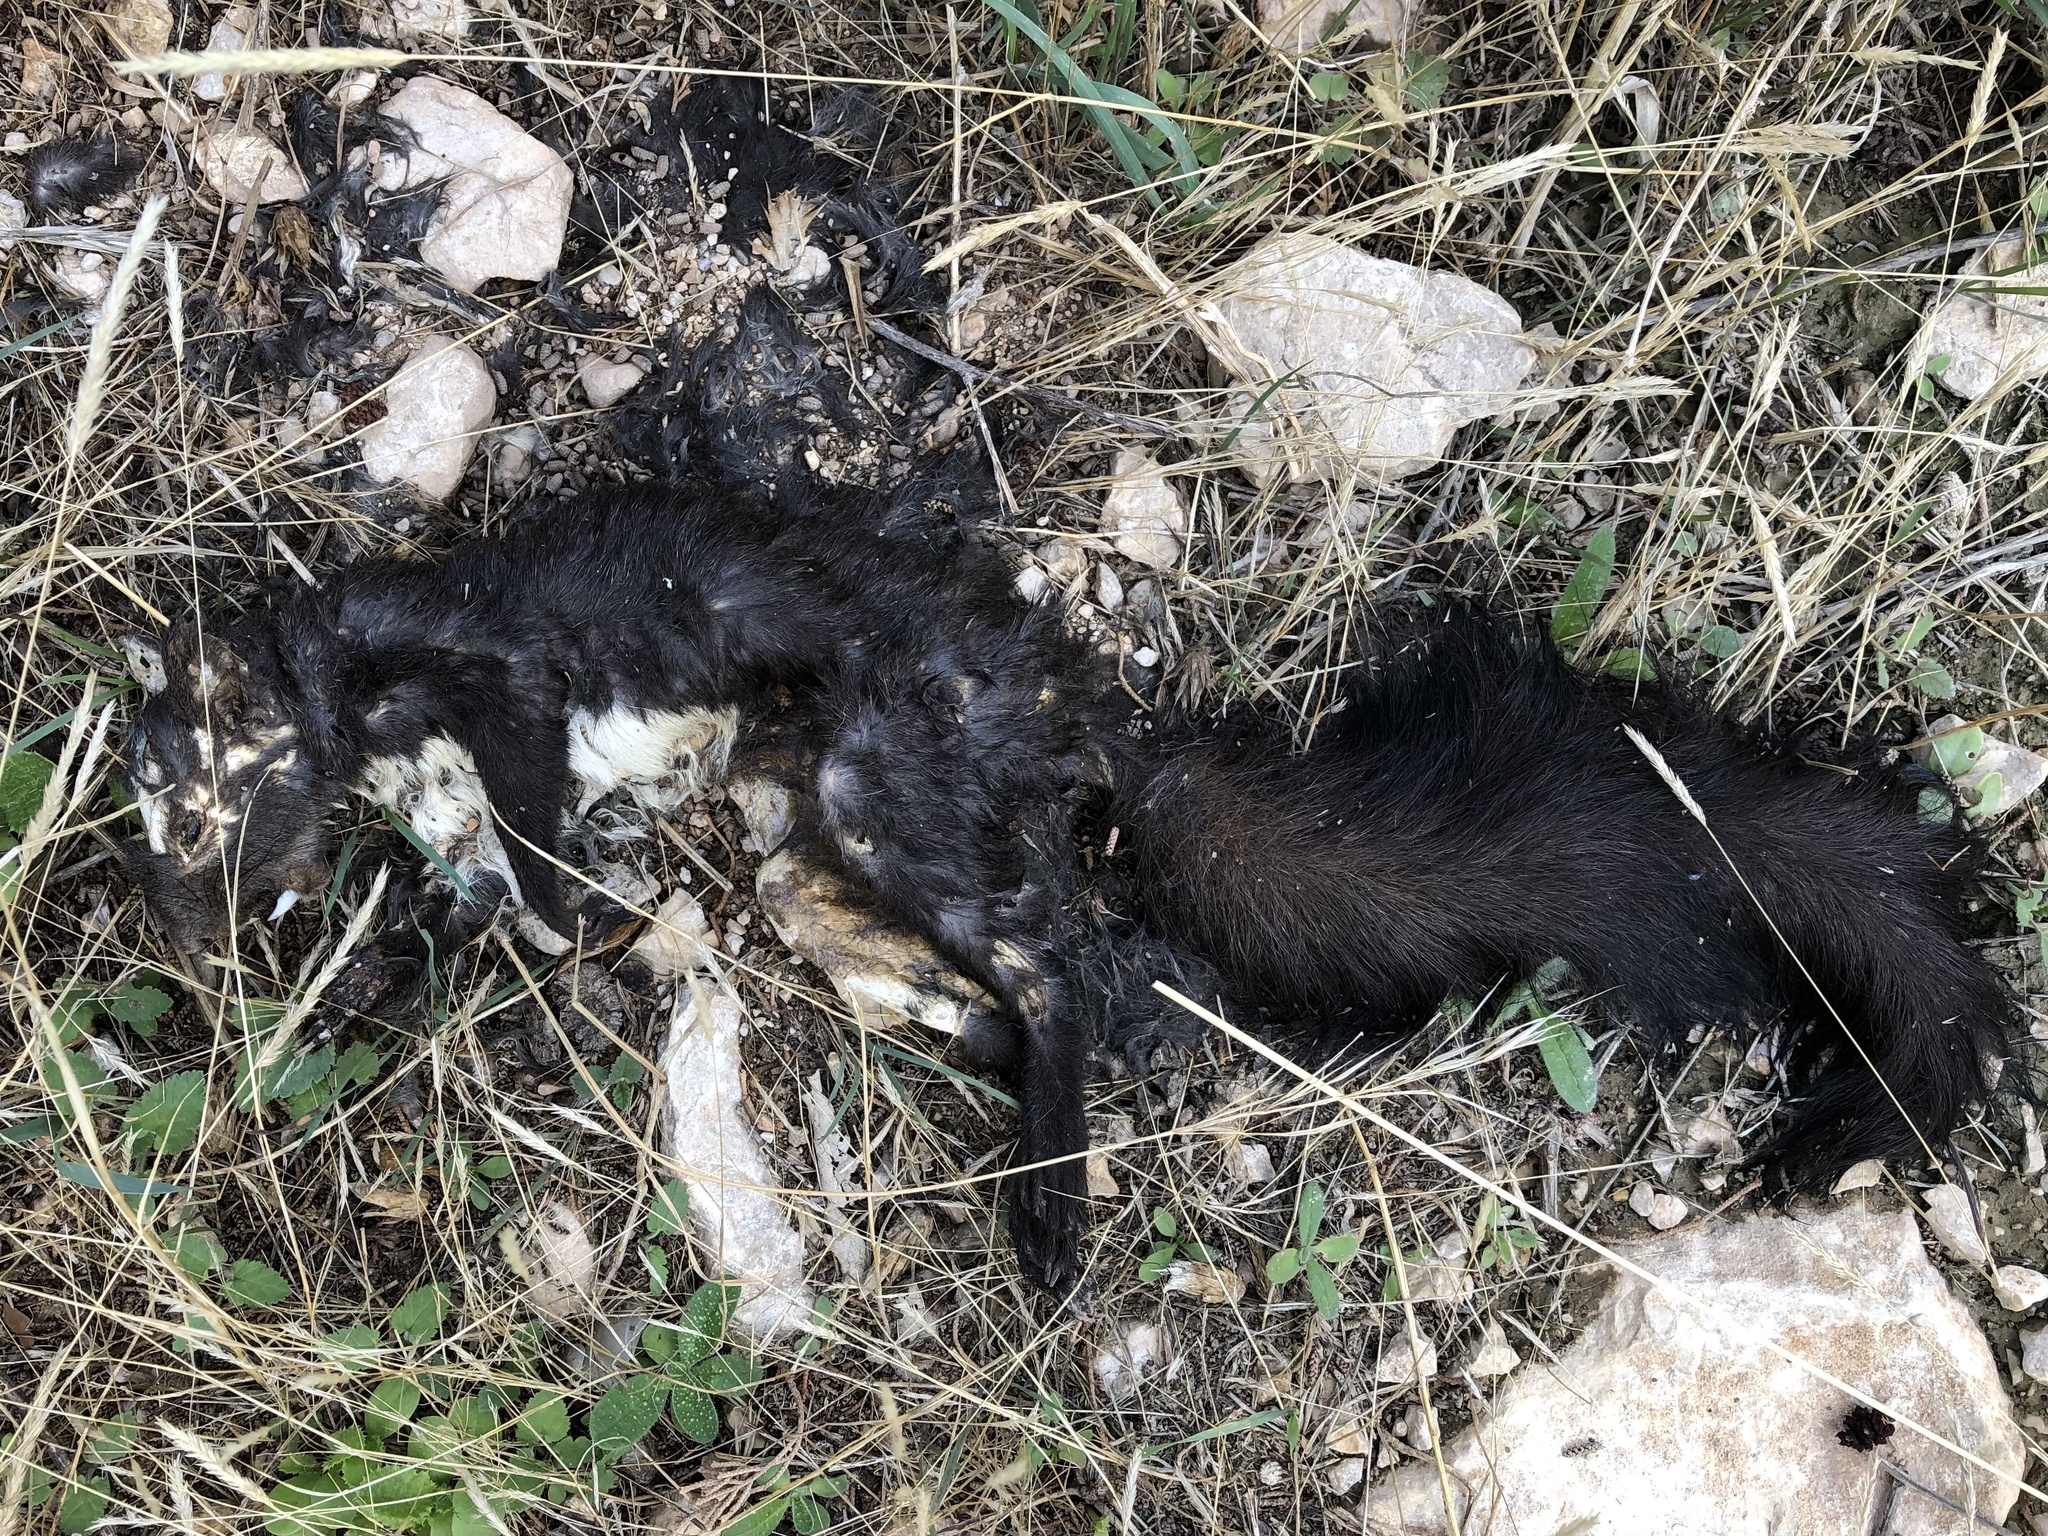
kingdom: Animalia
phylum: Chordata
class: Mammalia
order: Rodentia
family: Sciuridae
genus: Sciurus
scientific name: Sciurus vulgaris
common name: Eurasian red squirrel
